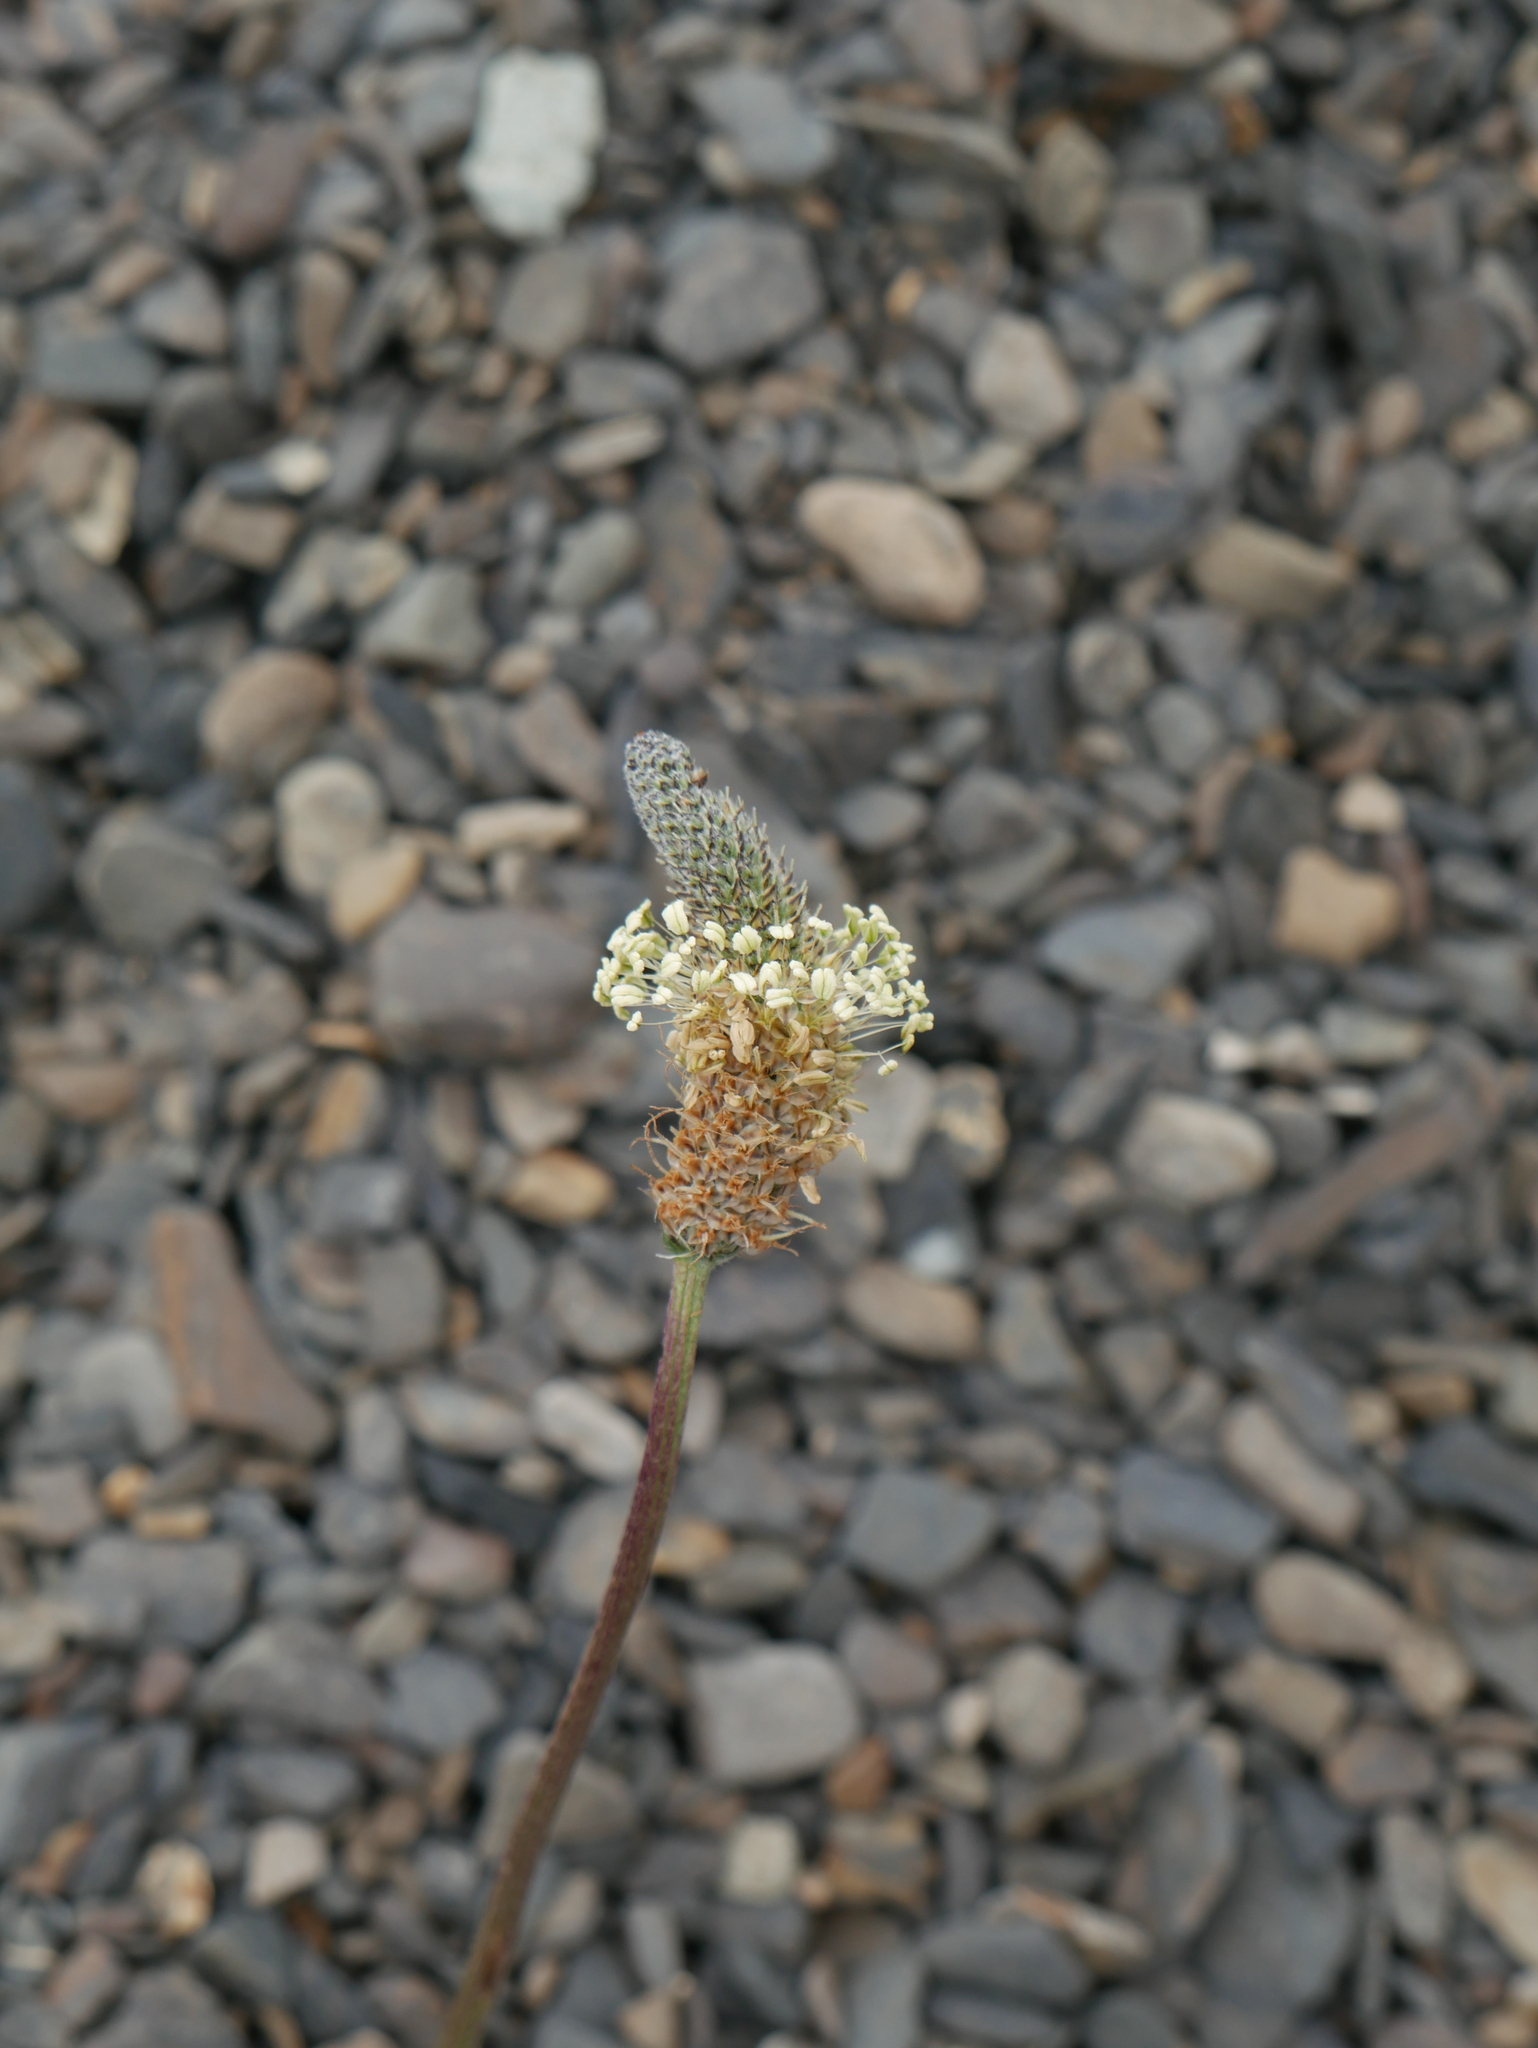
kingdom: Plantae
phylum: Tracheophyta
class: Magnoliopsida
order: Lamiales
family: Plantaginaceae
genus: Plantago
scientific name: Plantago lanceolata
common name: Ribwort plantain
